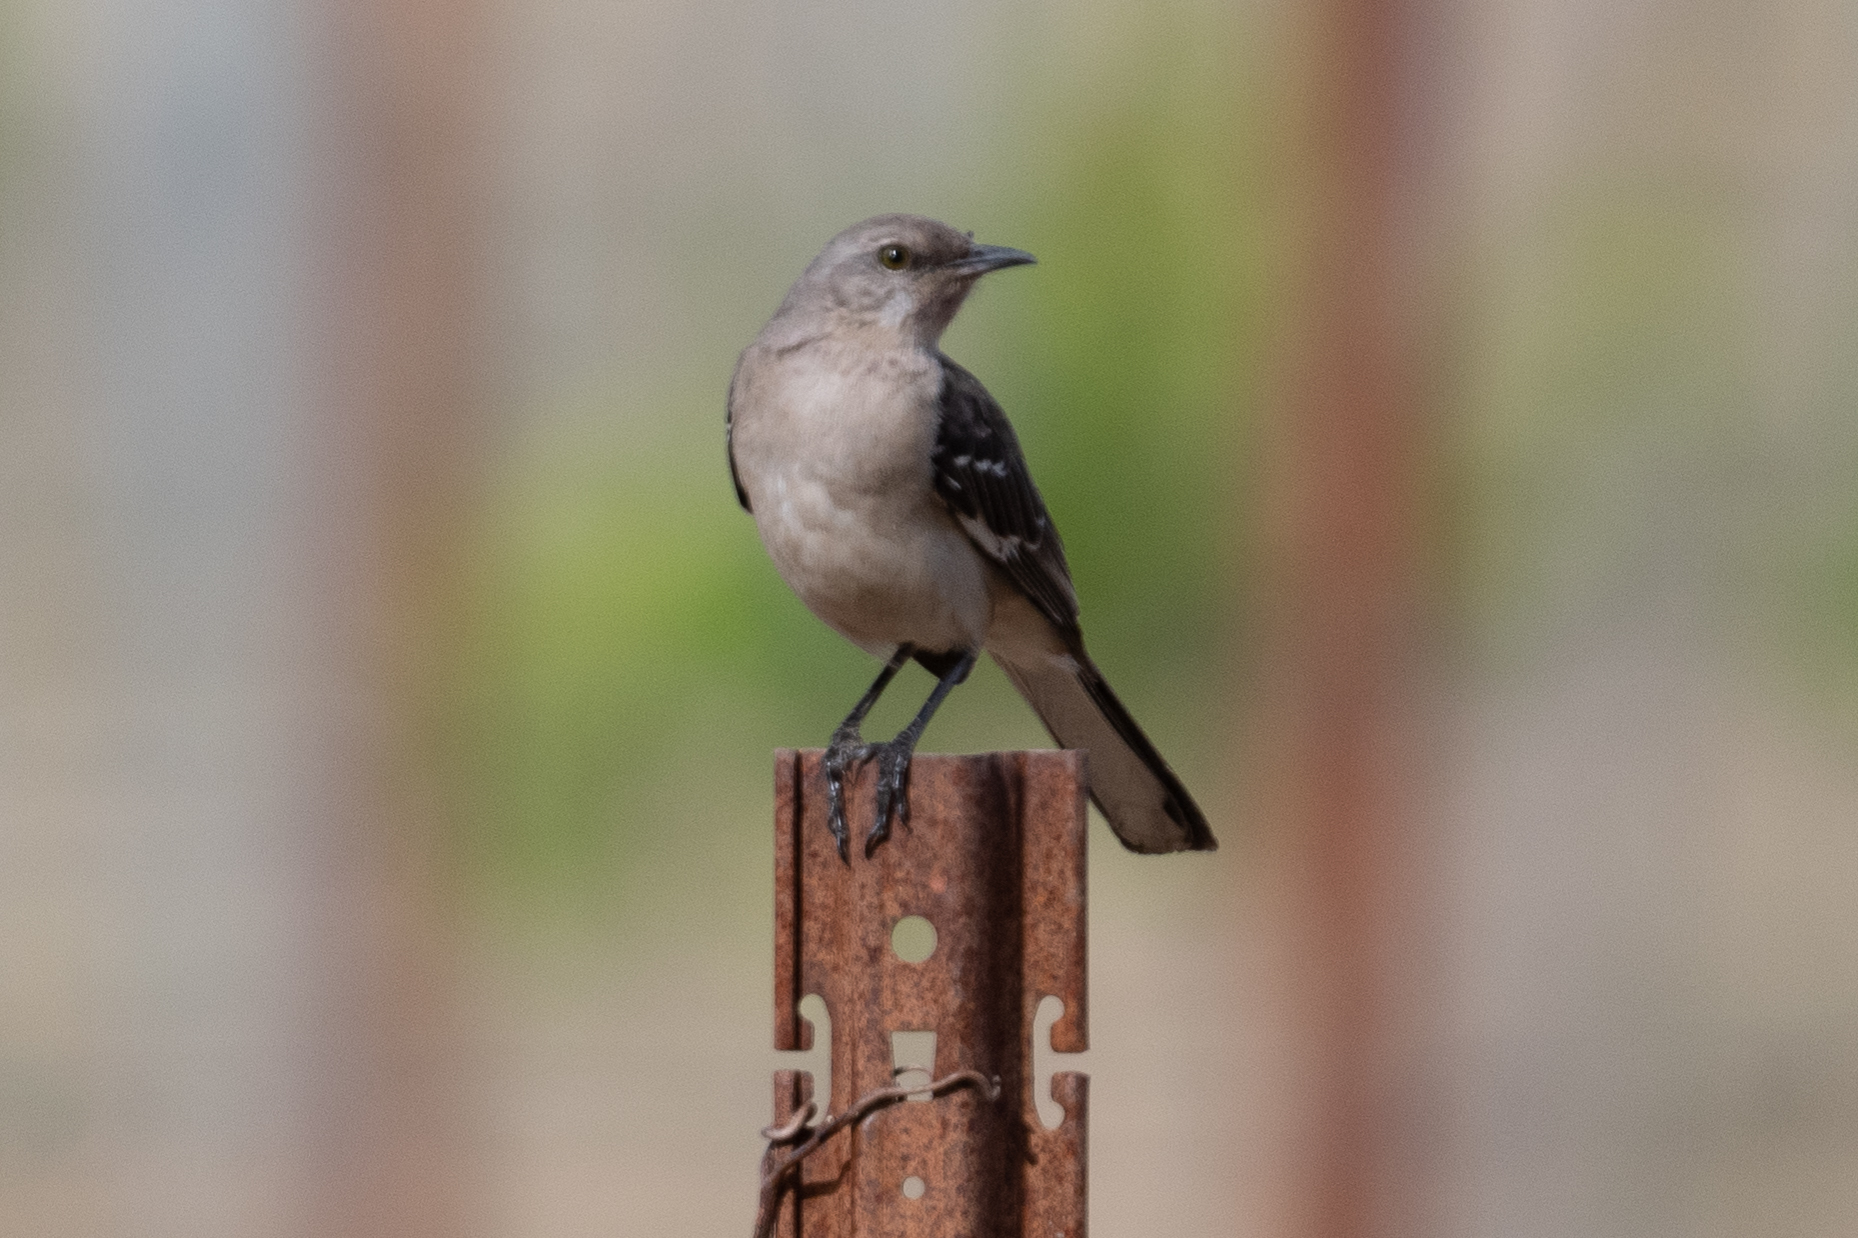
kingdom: Animalia
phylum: Chordata
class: Aves
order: Passeriformes
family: Mimidae
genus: Mimus
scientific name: Mimus polyglottos
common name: Northern mockingbird
